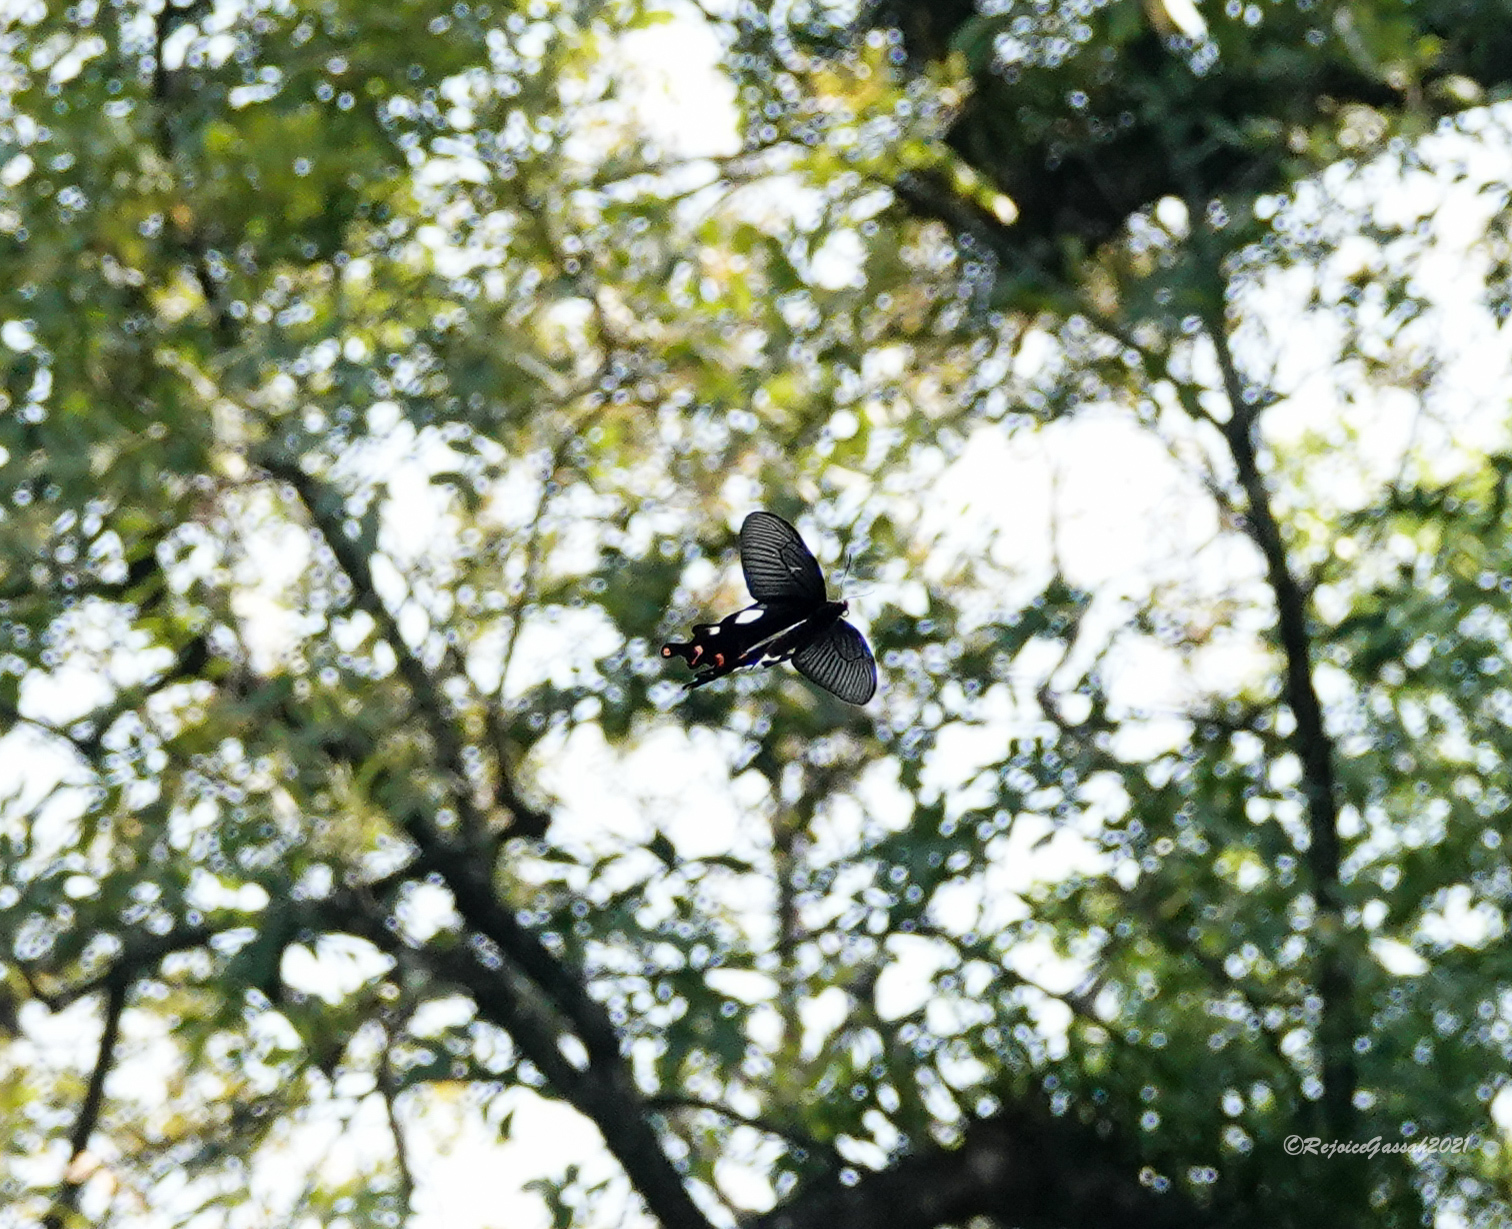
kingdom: Animalia
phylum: Arthropoda
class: Insecta
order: Lepidoptera
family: Papilionidae
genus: Byasa
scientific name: Byasa dasarada
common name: Great windmill
